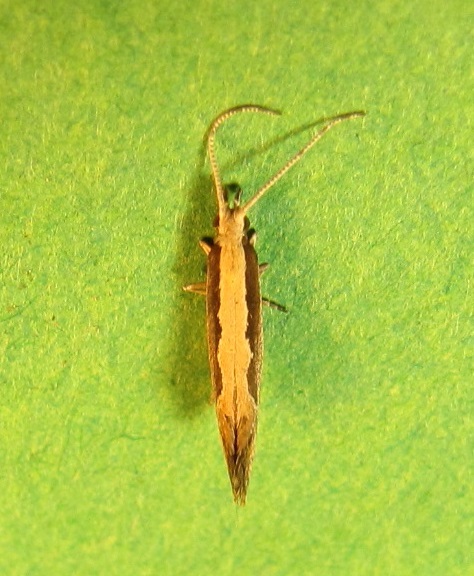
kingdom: Animalia
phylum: Arthropoda
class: Insecta
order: Lepidoptera
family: Plutellidae
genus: Plutella
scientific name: Plutella xylostella
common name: Diamond-back moth
